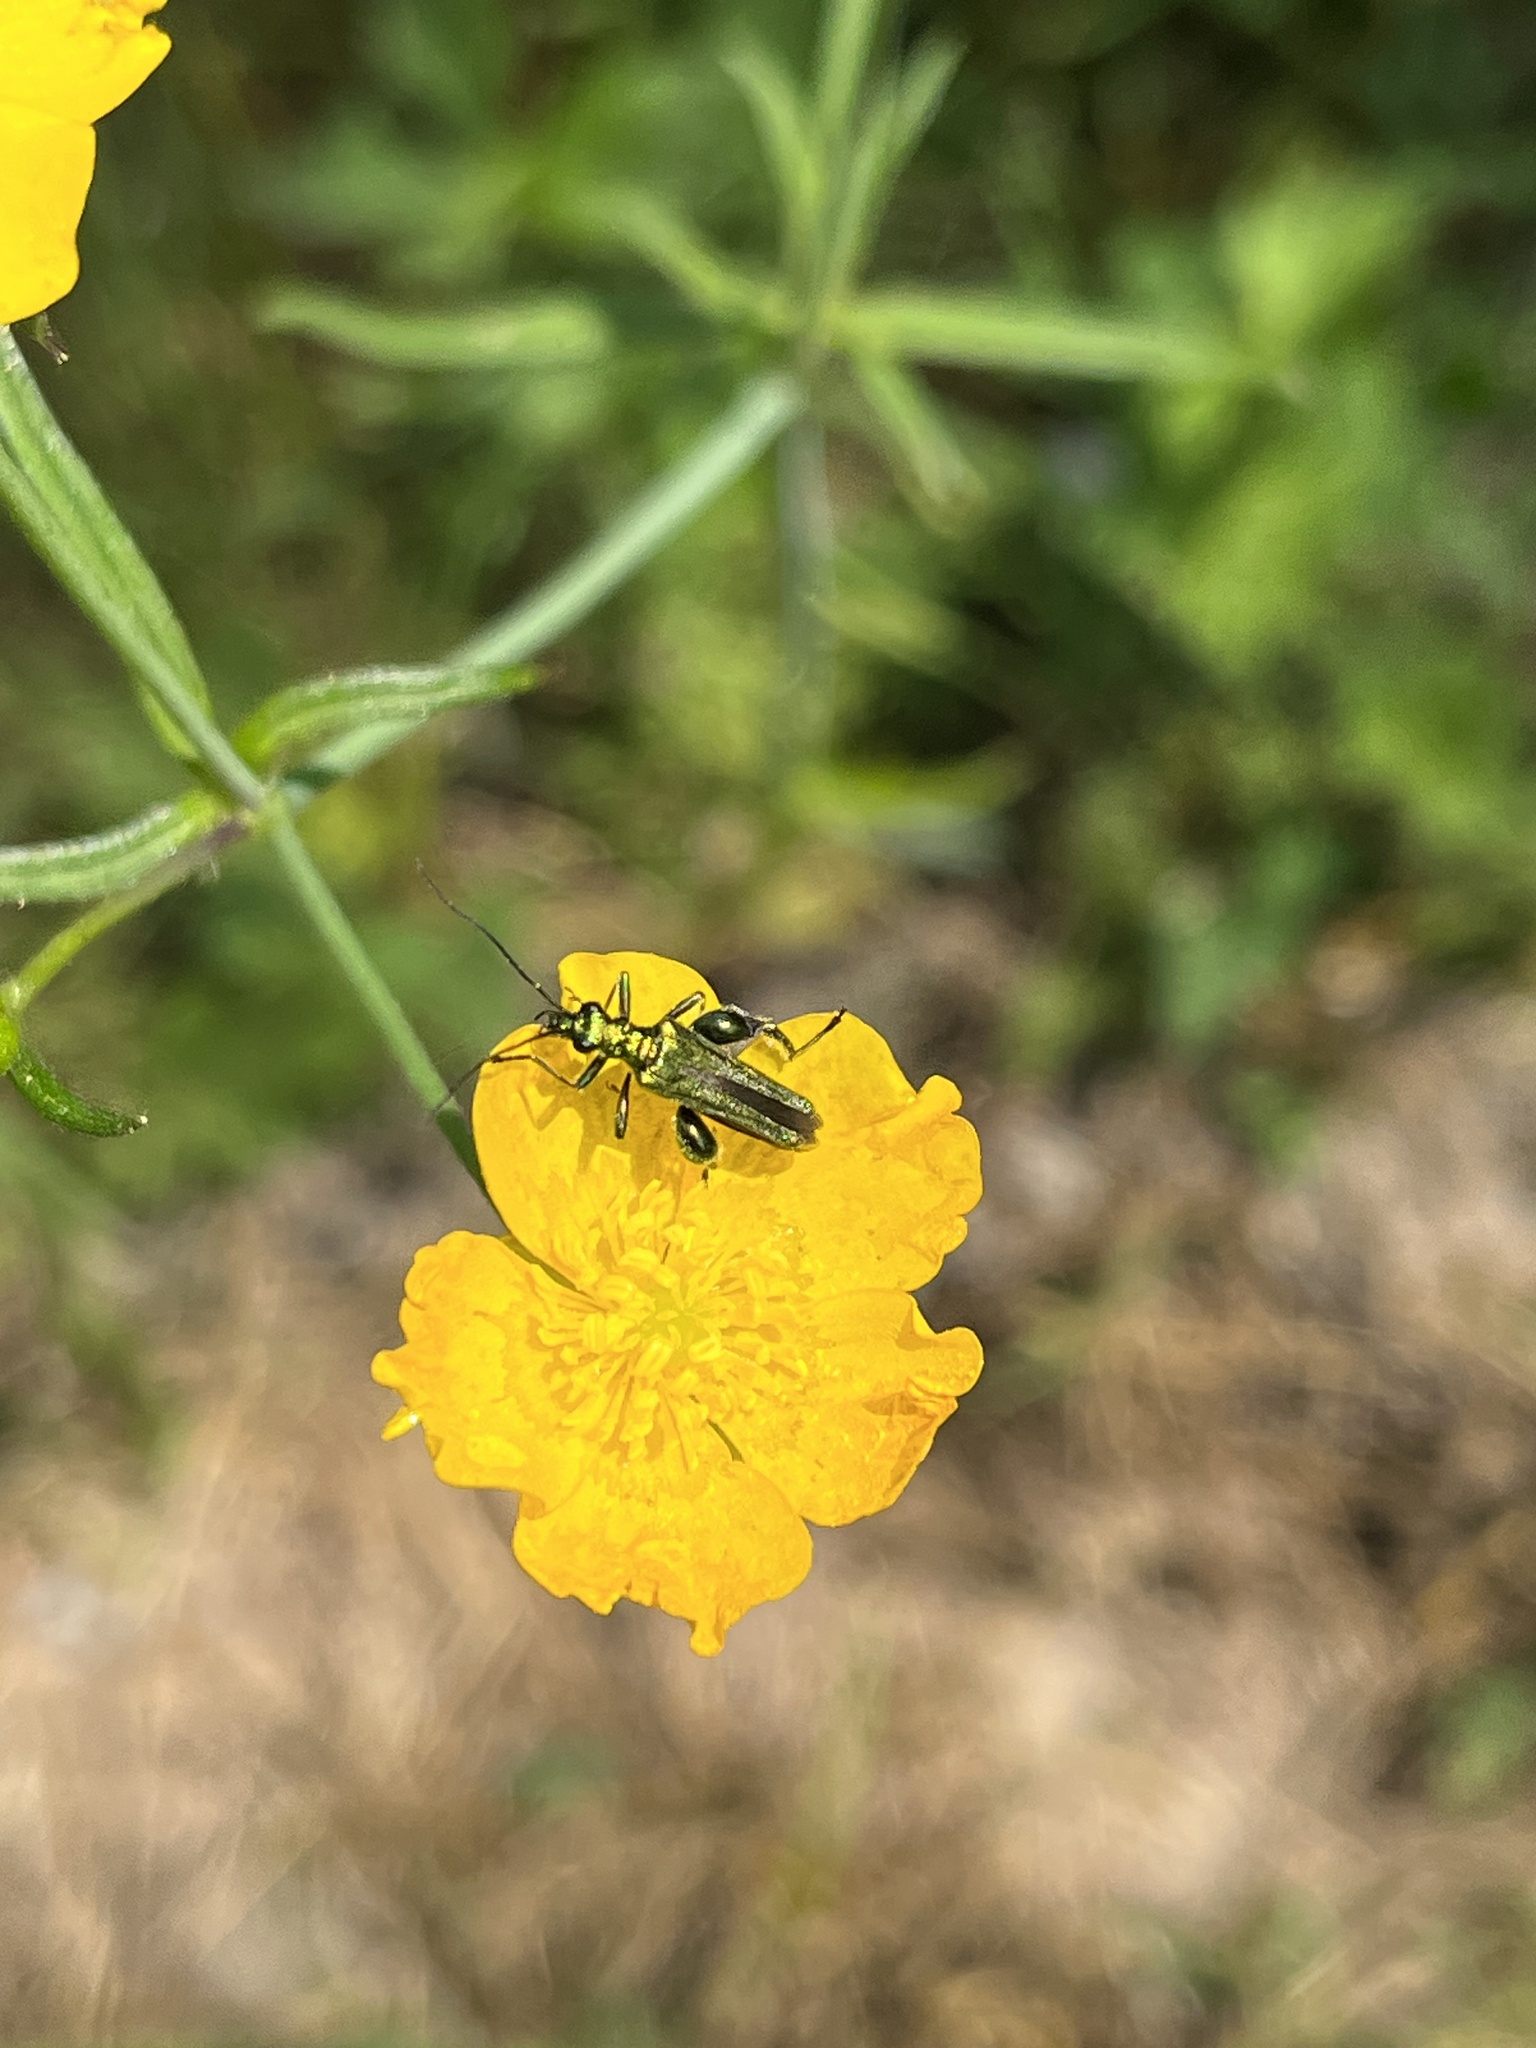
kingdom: Animalia
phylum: Arthropoda
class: Insecta
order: Coleoptera
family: Oedemeridae
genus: Oedemera
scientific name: Oedemera nobilis
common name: Swollen-thighed beetle
